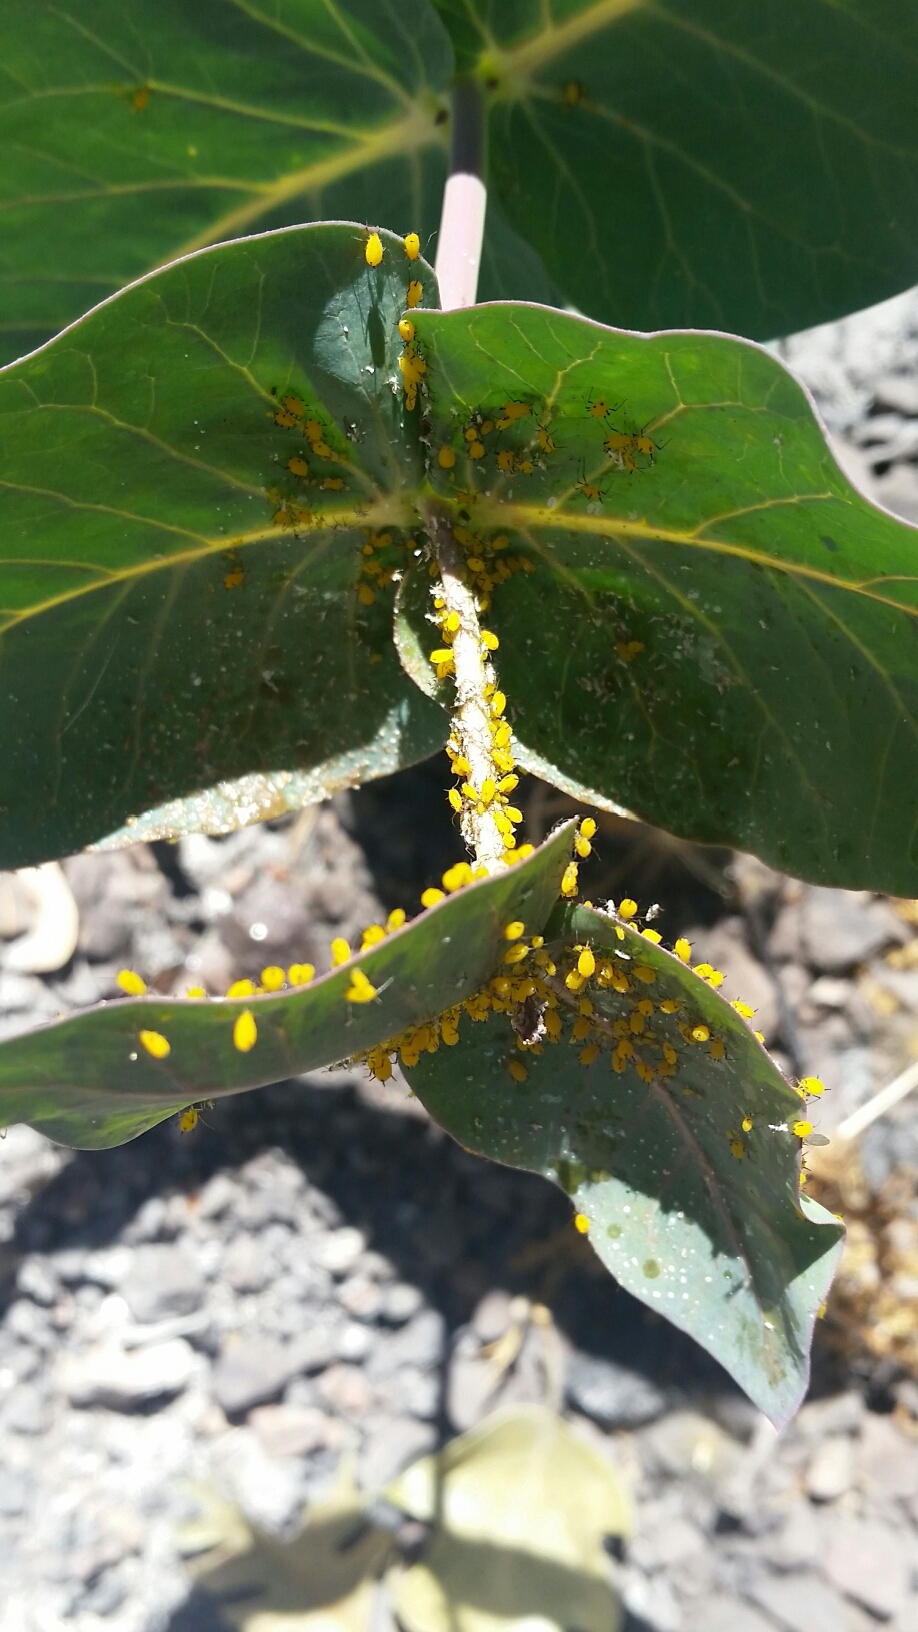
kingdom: Plantae
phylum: Tracheophyta
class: Magnoliopsida
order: Gentianales
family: Apocynaceae
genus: Asclepias
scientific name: Asclepias cordifolia
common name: Purple milkweed
